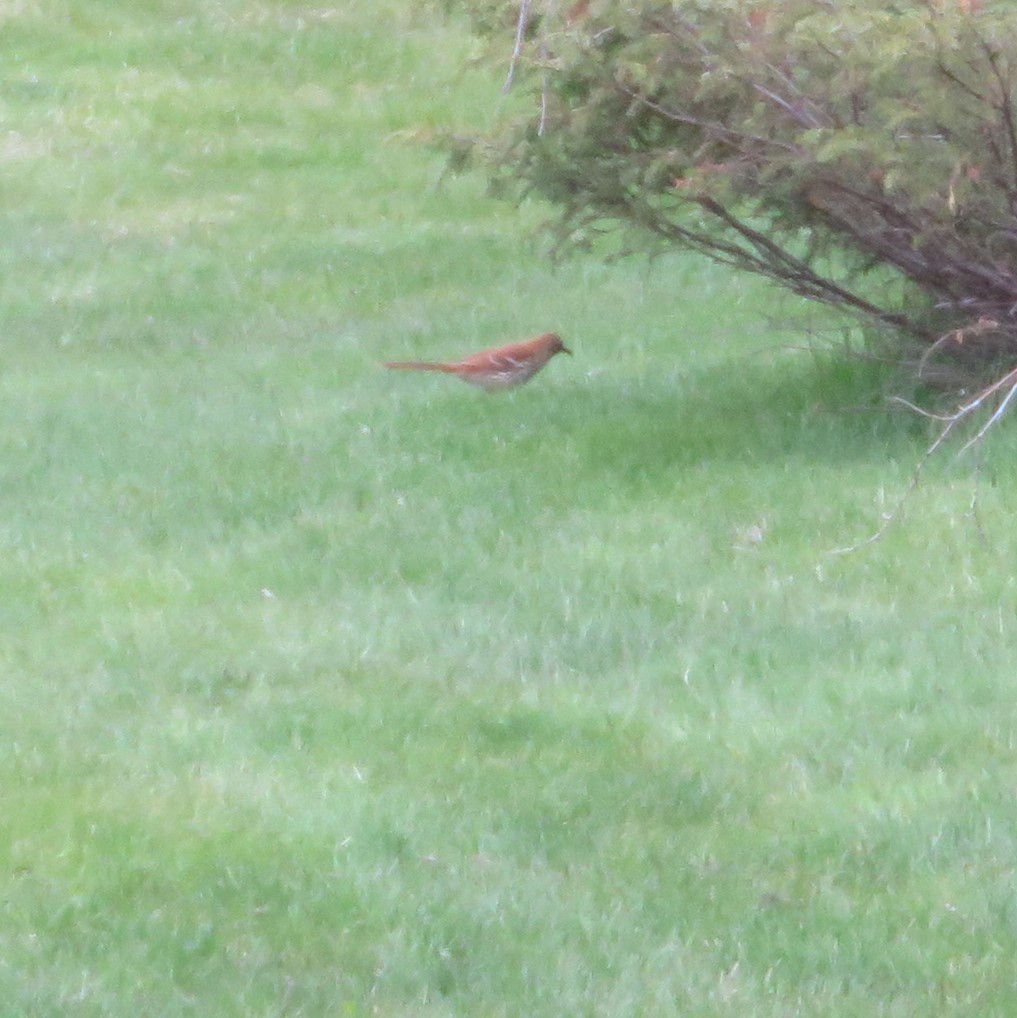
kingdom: Animalia
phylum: Chordata
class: Aves
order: Passeriformes
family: Mimidae
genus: Toxostoma
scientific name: Toxostoma rufum
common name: Brown thrasher
